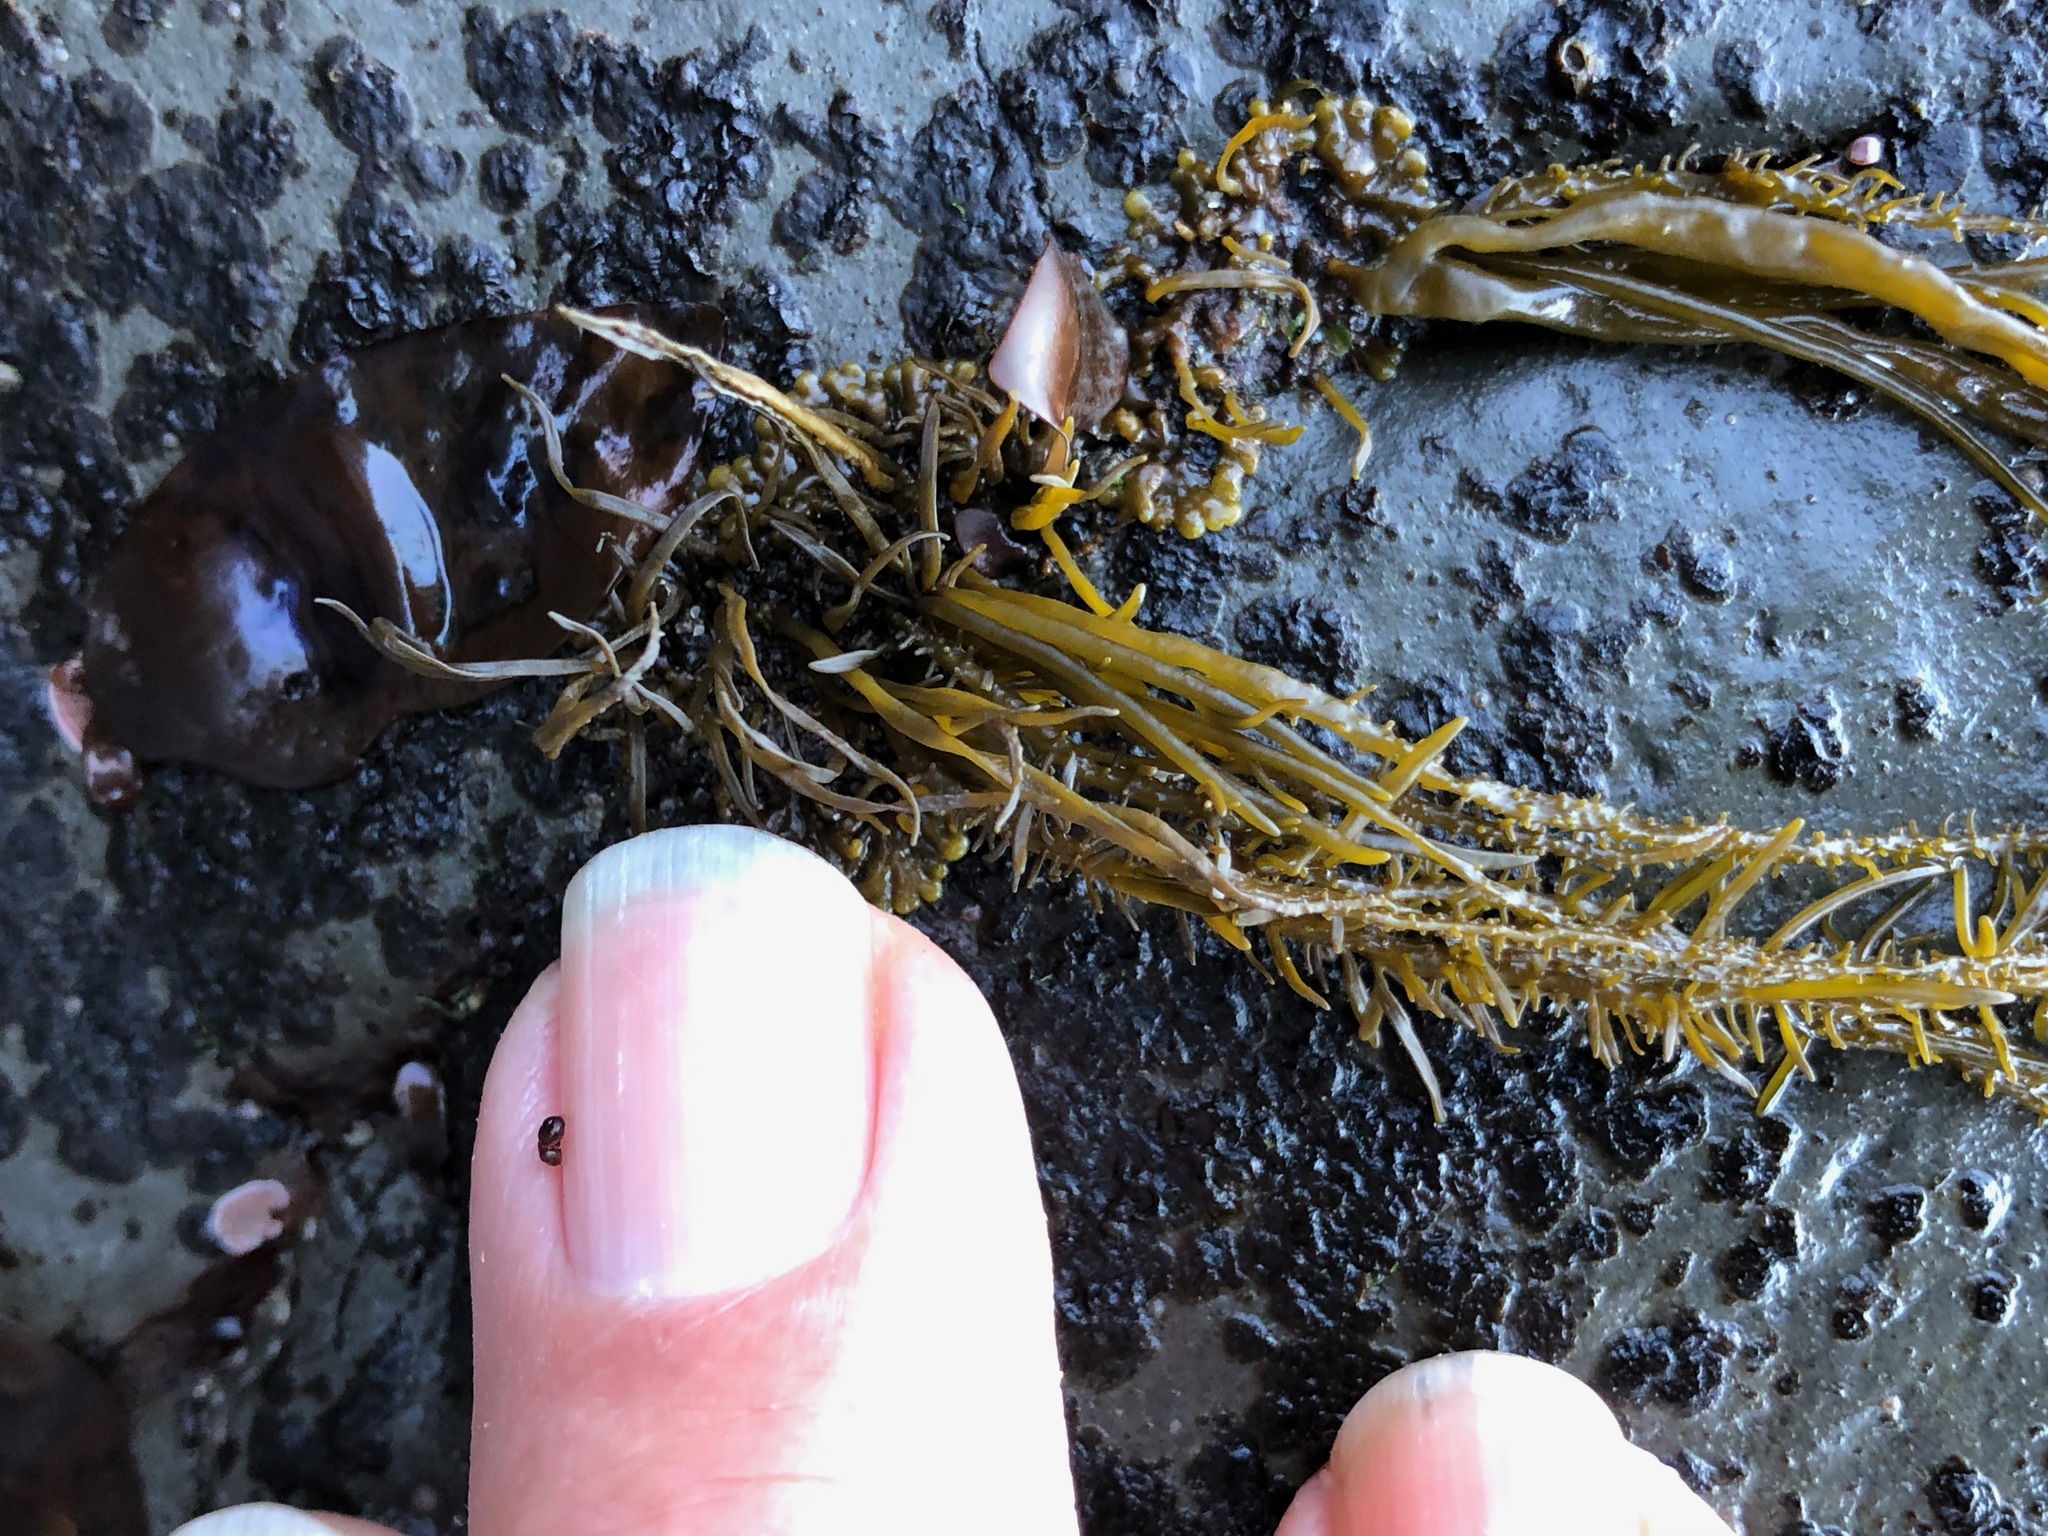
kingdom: Chromista
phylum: Ochrophyta
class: Phaeophyceae
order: Scytosiphonales
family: Scytosiphonaceae
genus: Analipus
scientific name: Analipus japonicus
